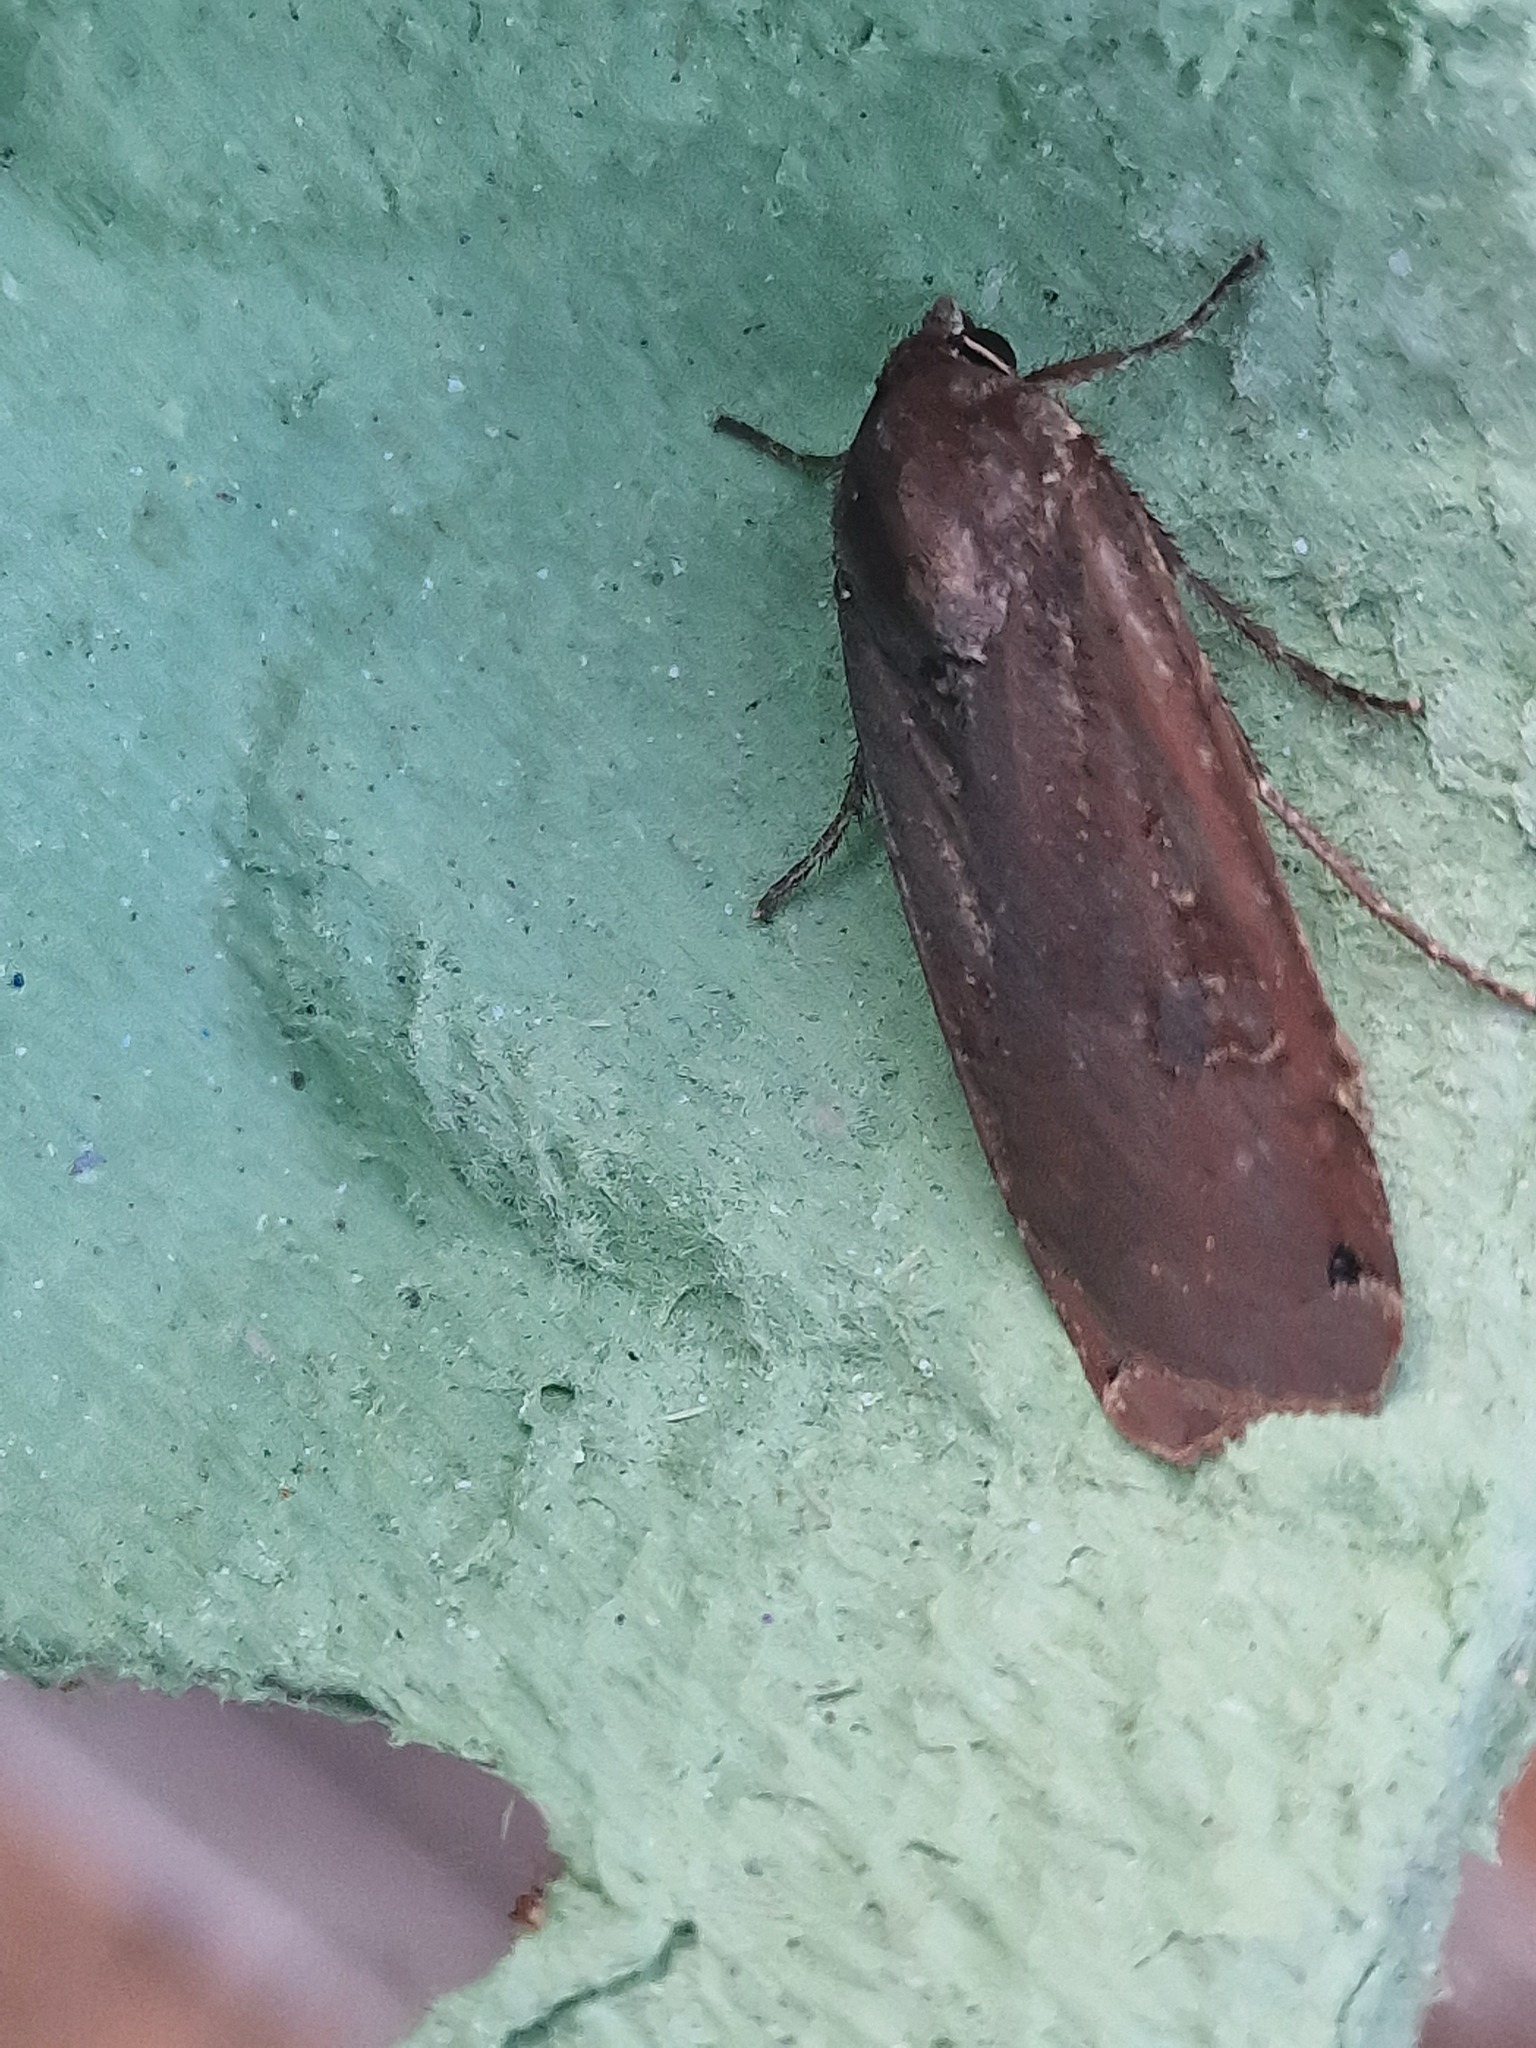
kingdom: Animalia
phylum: Arthropoda
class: Insecta
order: Lepidoptera
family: Noctuidae
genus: Noctua
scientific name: Noctua pronuba
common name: Large yellow underwing
